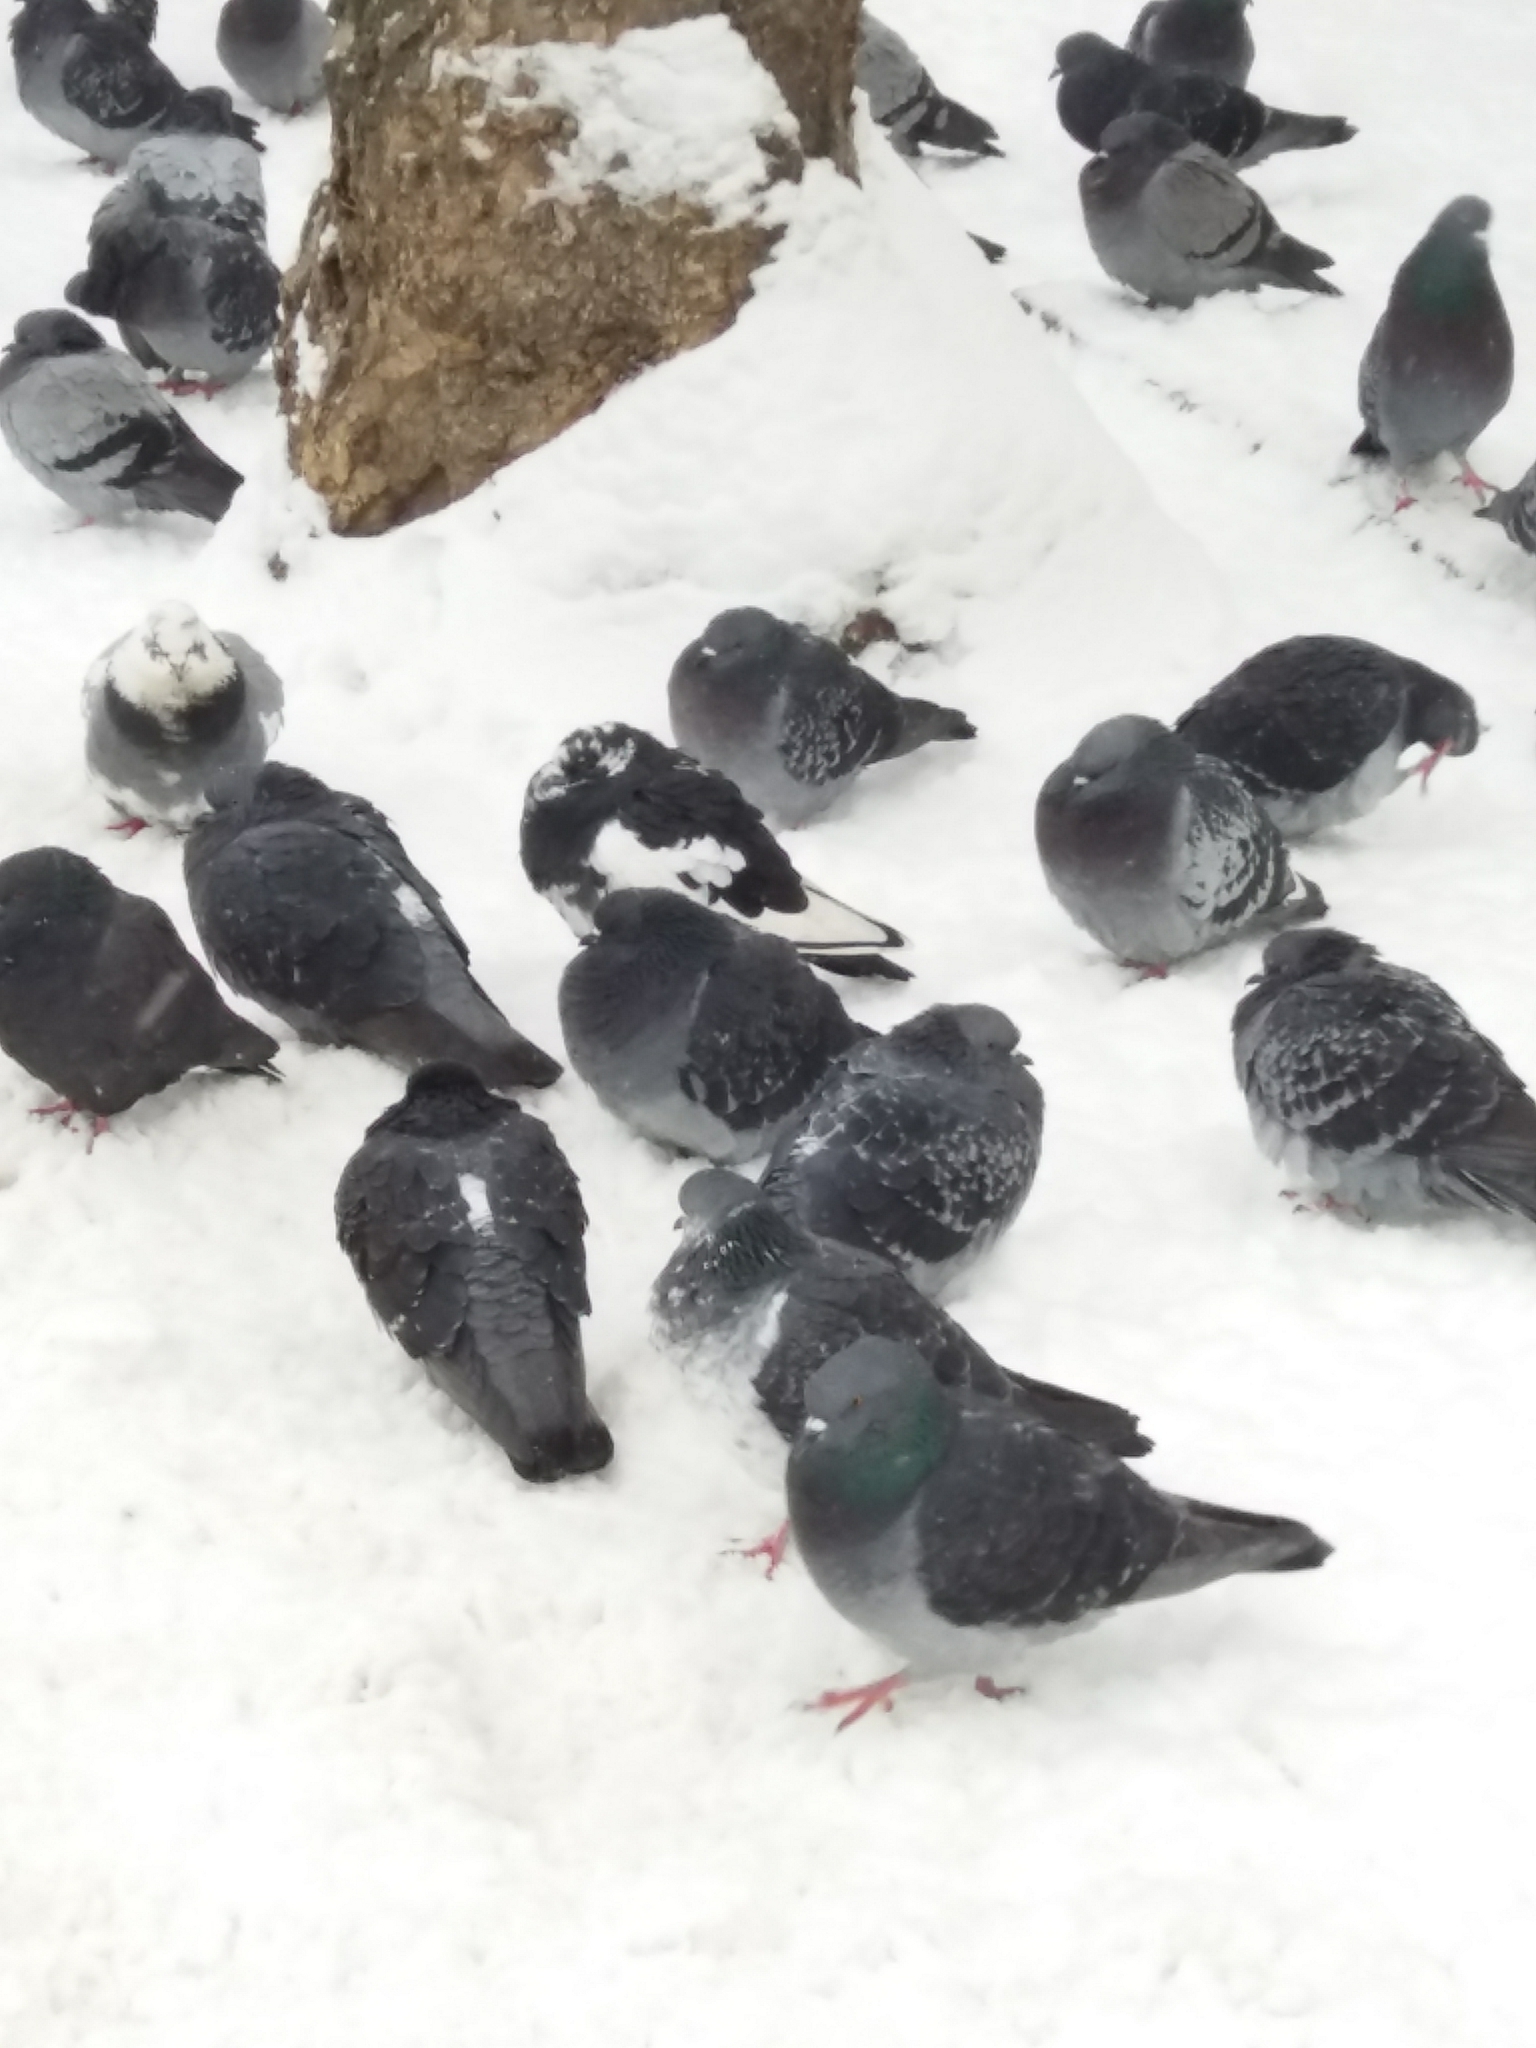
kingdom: Animalia
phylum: Chordata
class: Aves
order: Columbiformes
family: Columbidae
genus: Columba
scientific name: Columba livia
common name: Rock pigeon
